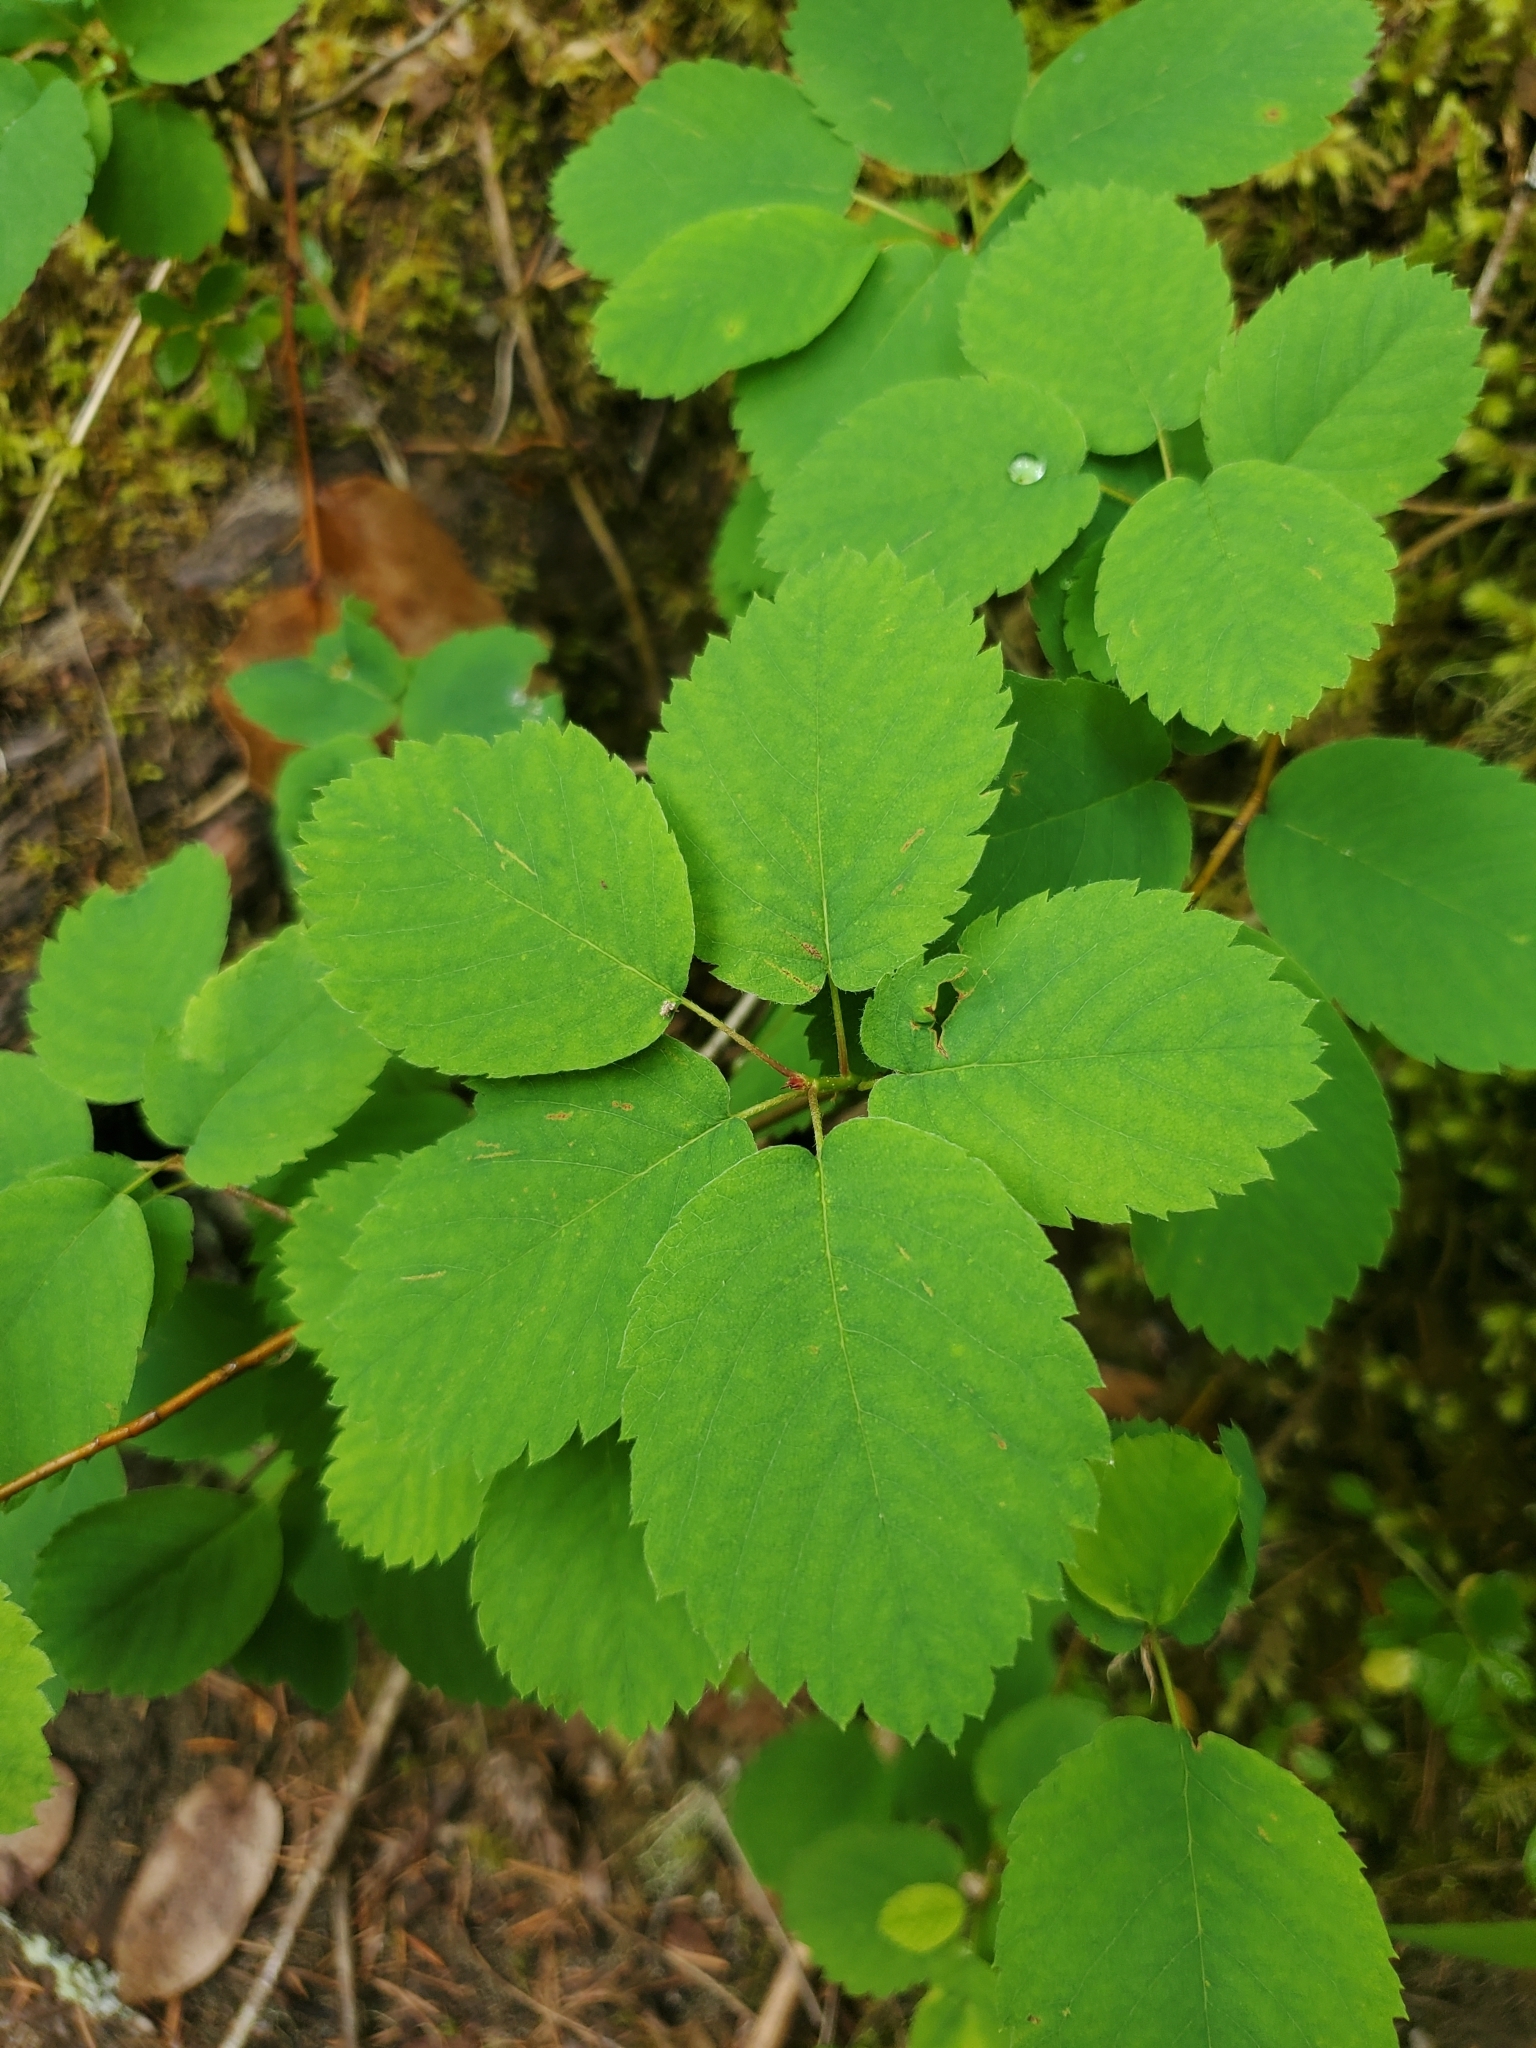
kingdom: Plantae
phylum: Tracheophyta
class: Magnoliopsida
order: Rosales
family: Rosaceae
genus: Amelanchier
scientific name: Amelanchier alnifolia
